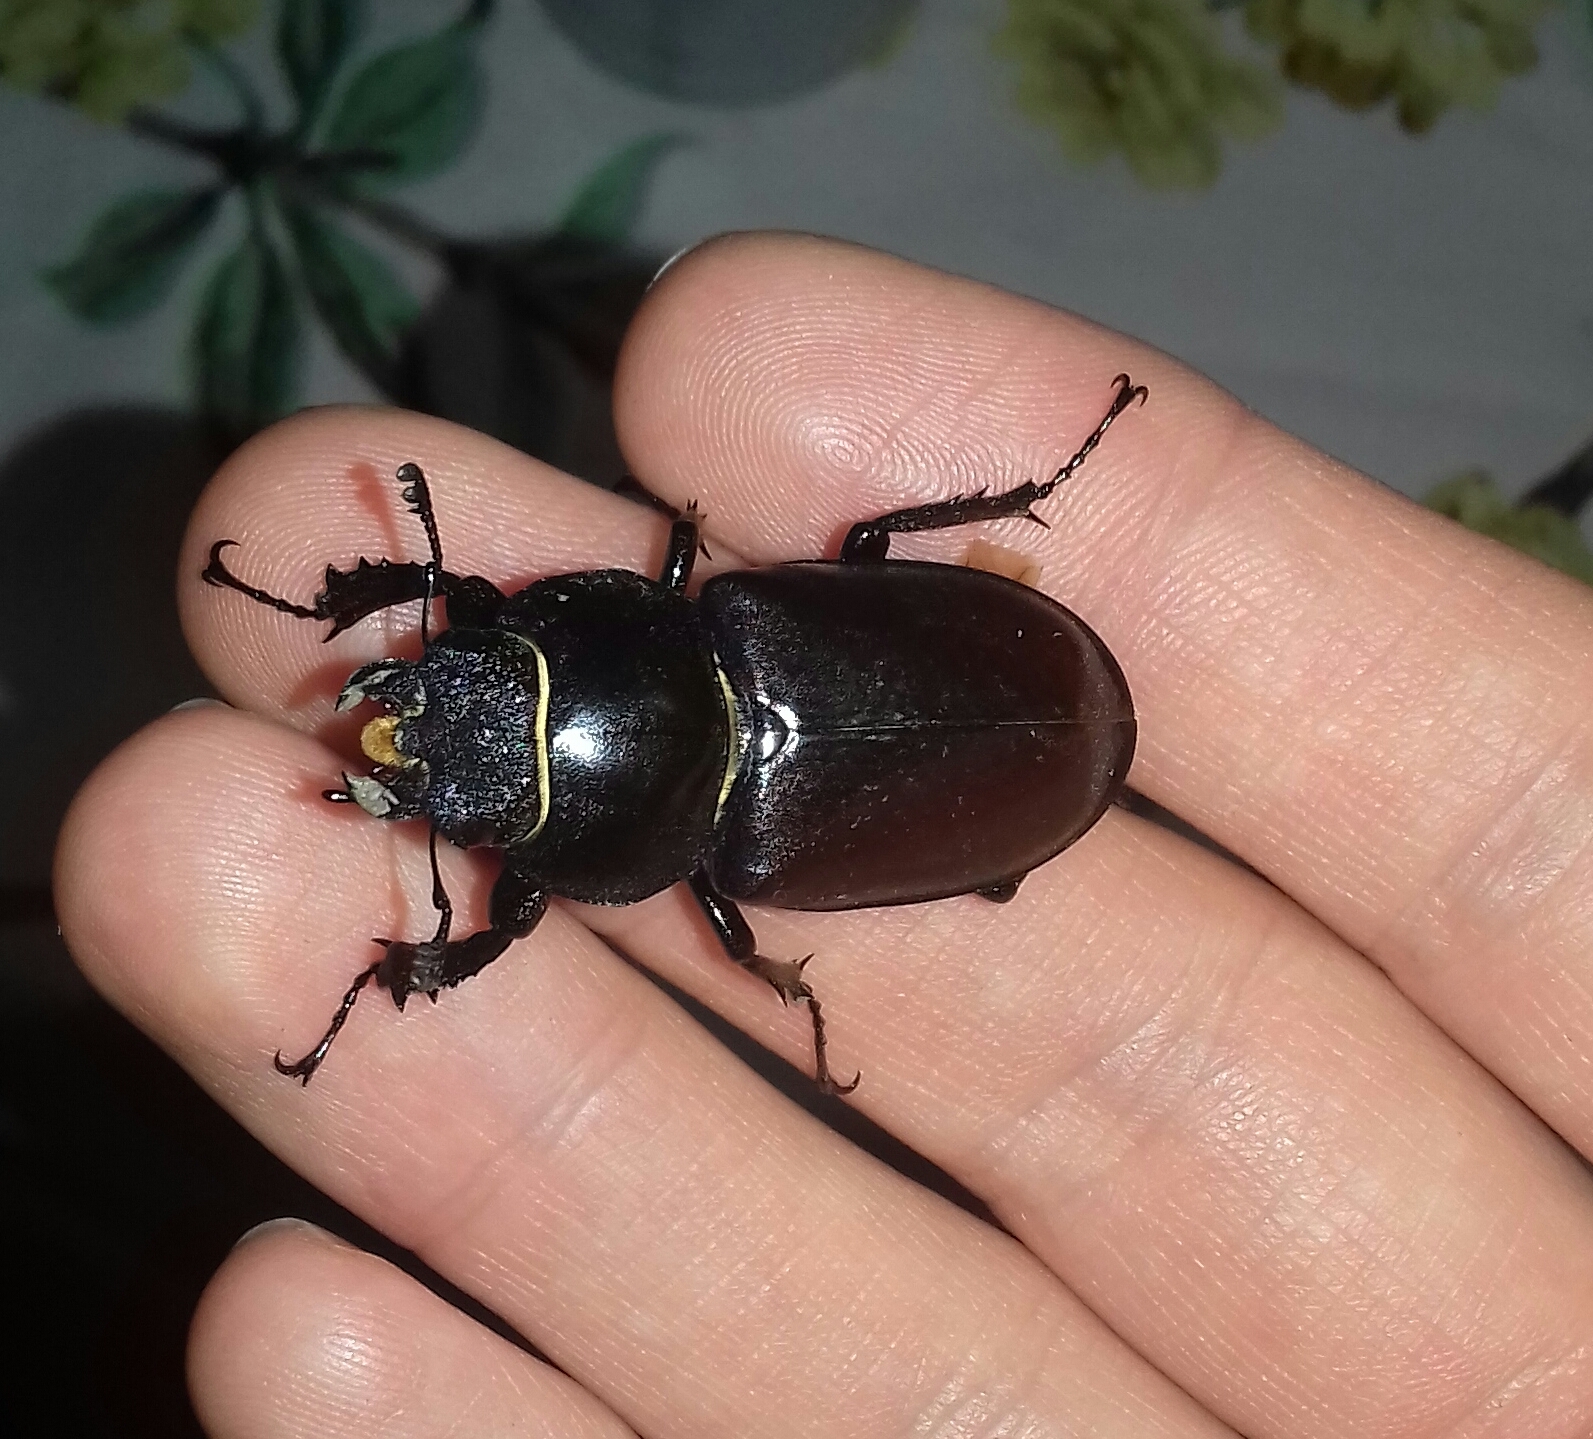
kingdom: Animalia
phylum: Arthropoda
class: Insecta
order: Coleoptera
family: Lucanidae
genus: Lucanus
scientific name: Lucanus cervus
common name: Stag beetle
